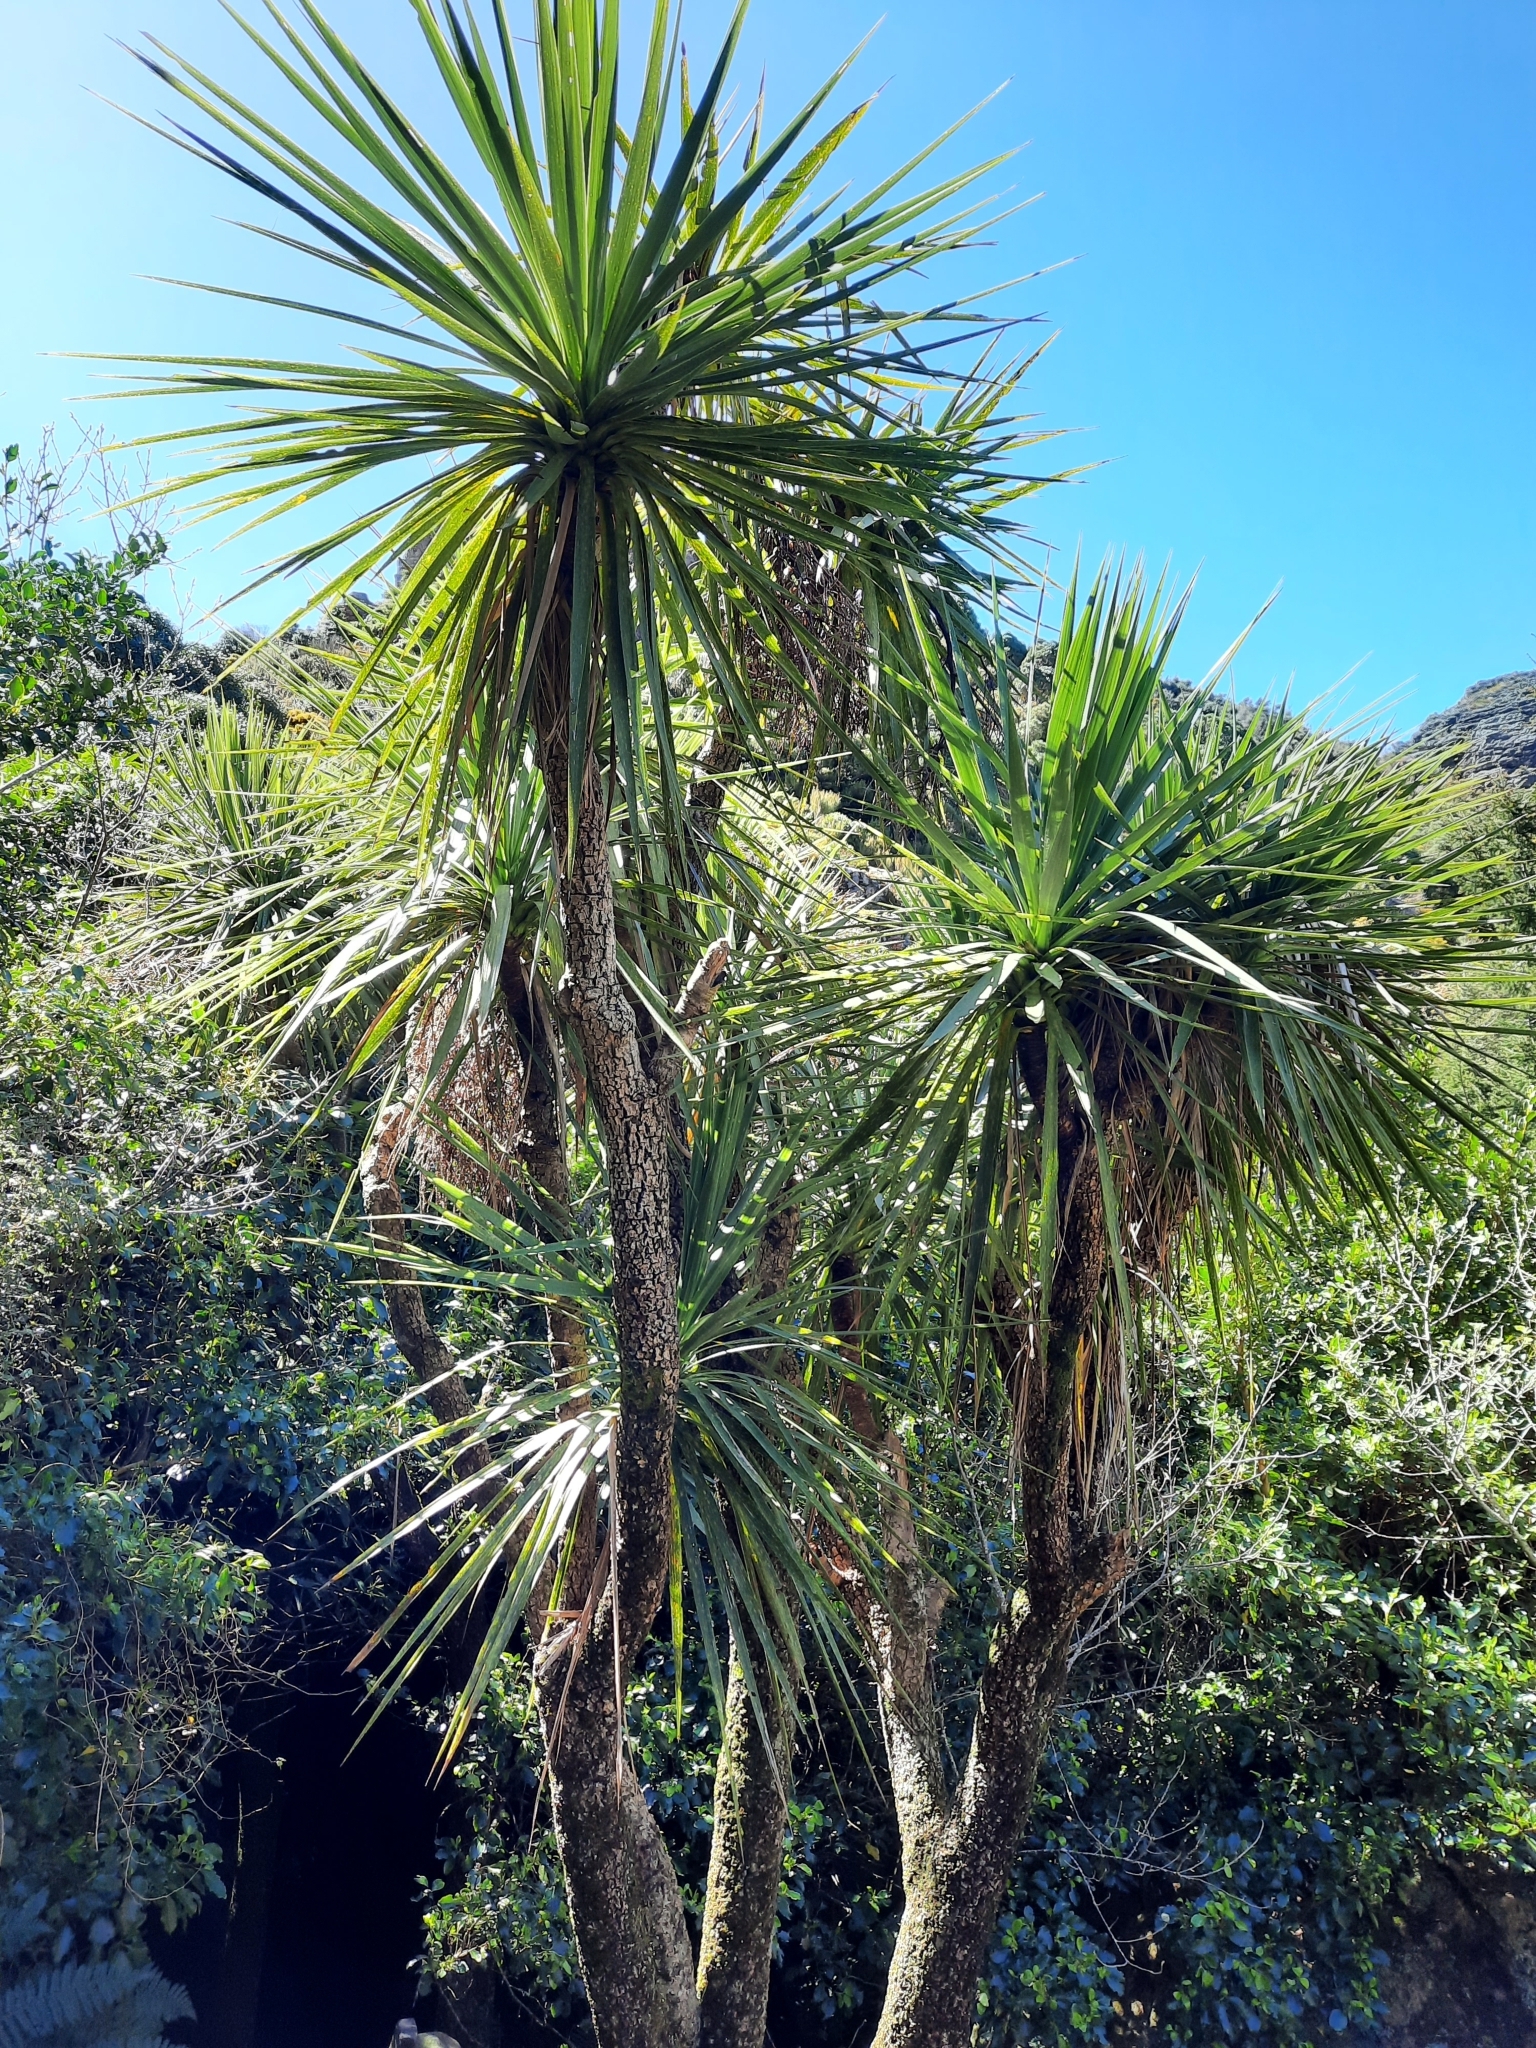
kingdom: Plantae
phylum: Tracheophyta
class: Liliopsida
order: Asparagales
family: Asparagaceae
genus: Cordyline
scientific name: Cordyline australis
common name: Cabbage-palm
